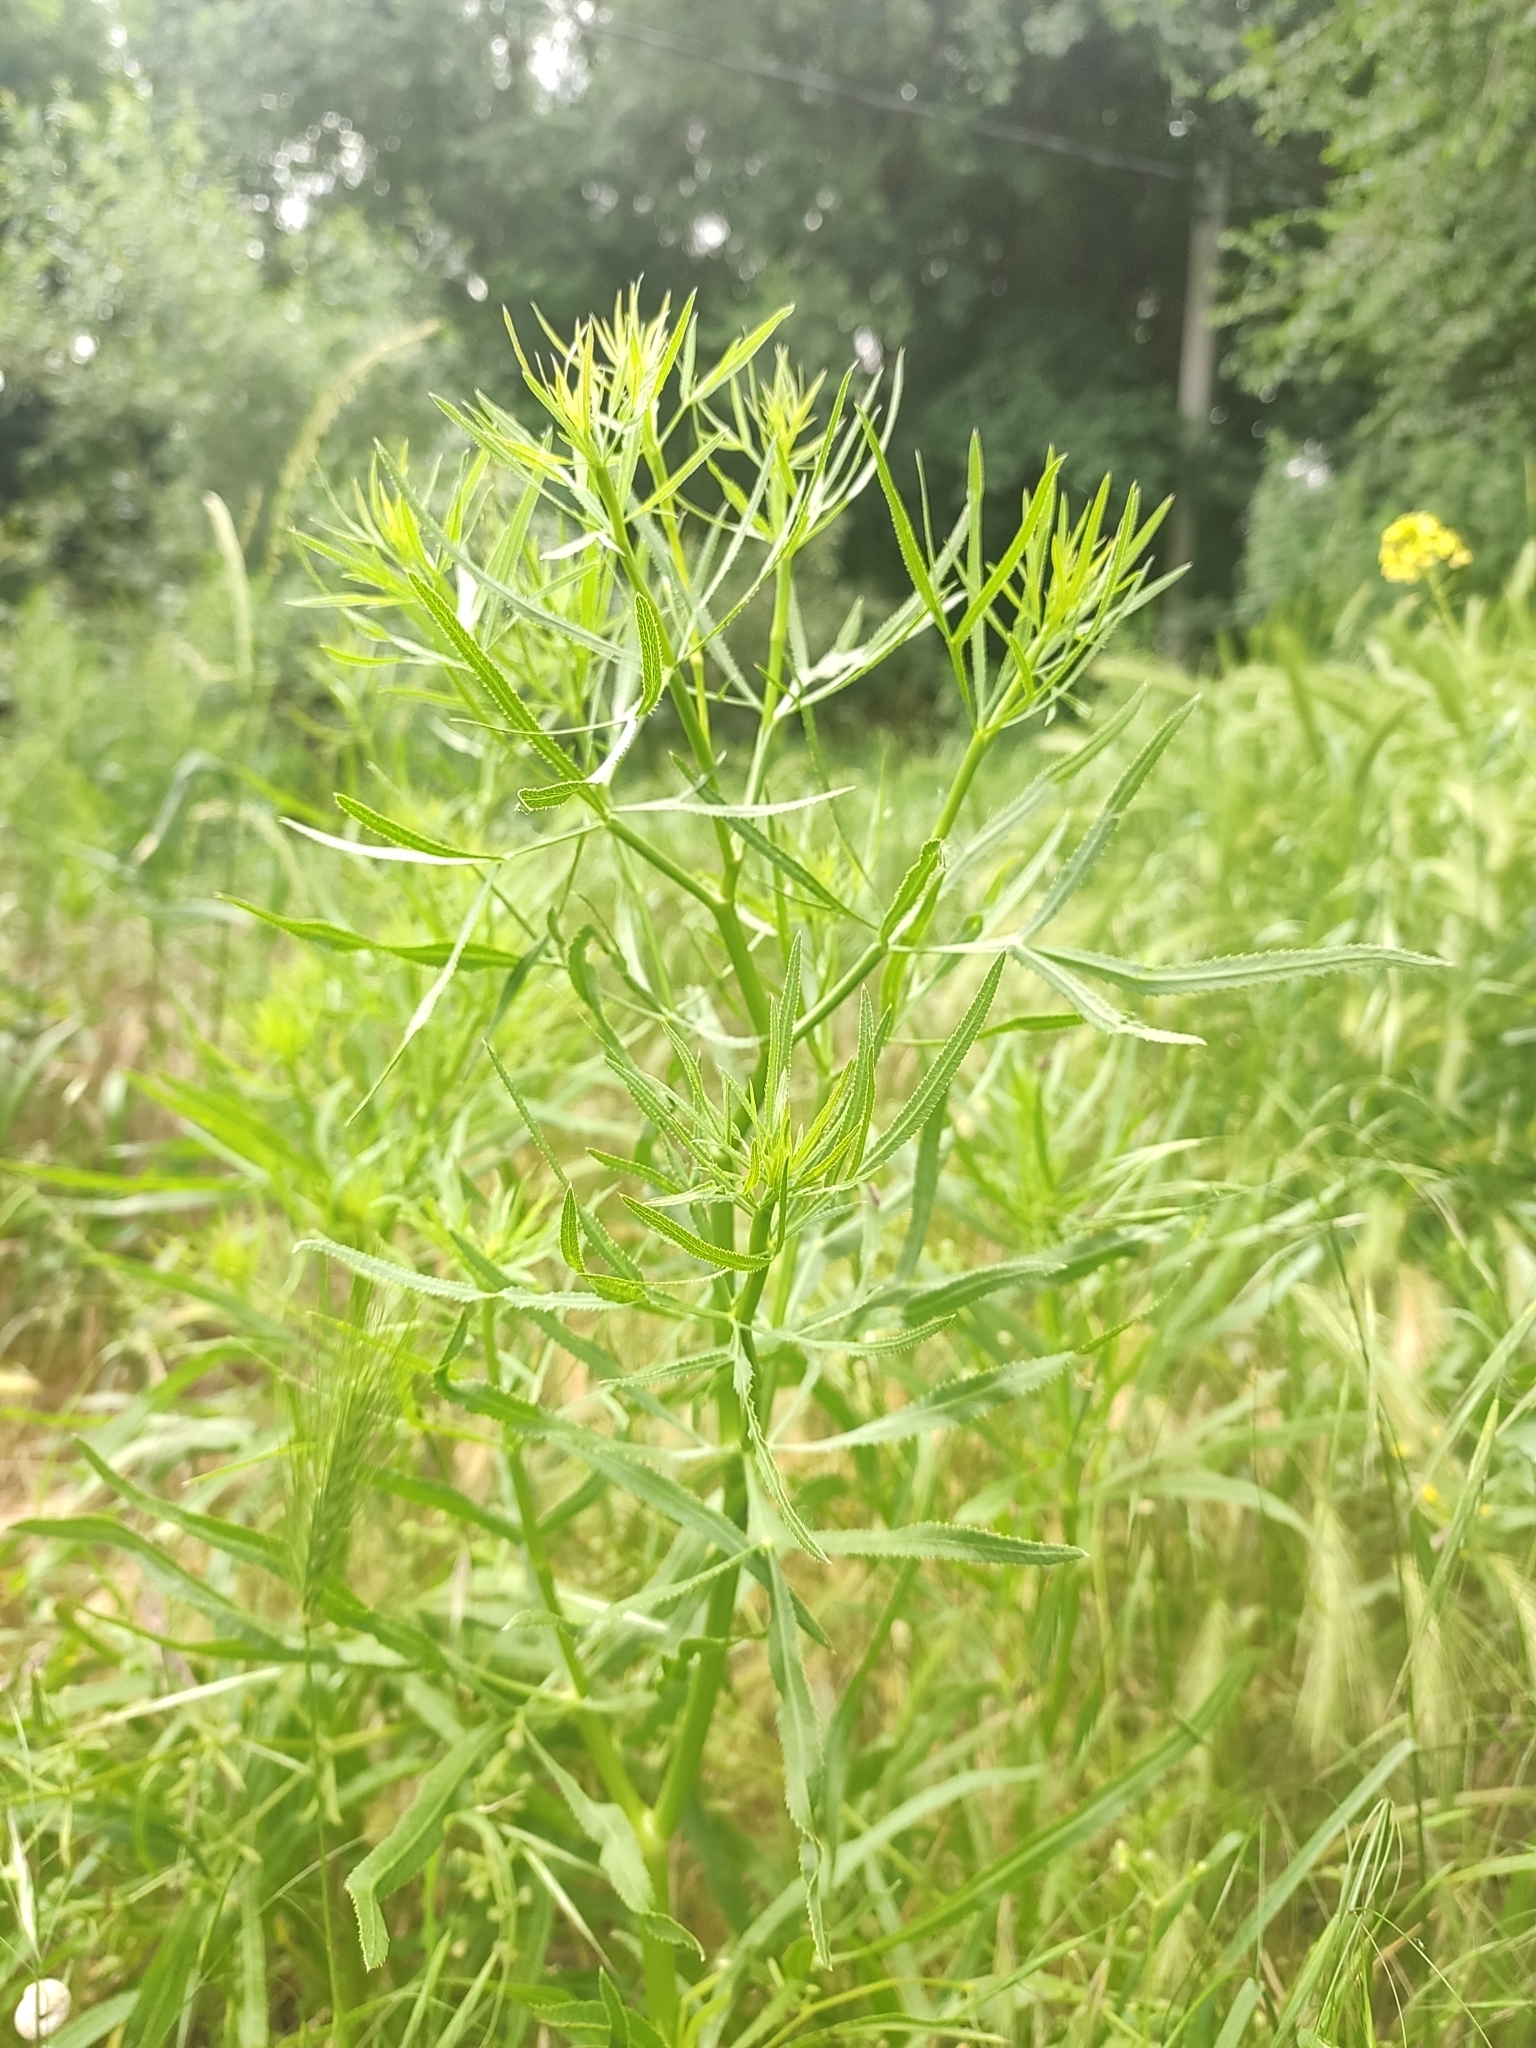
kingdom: Plantae
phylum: Tracheophyta
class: Magnoliopsida
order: Apiales
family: Apiaceae
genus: Falcaria
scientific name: Falcaria vulgaris
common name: Longleaf
